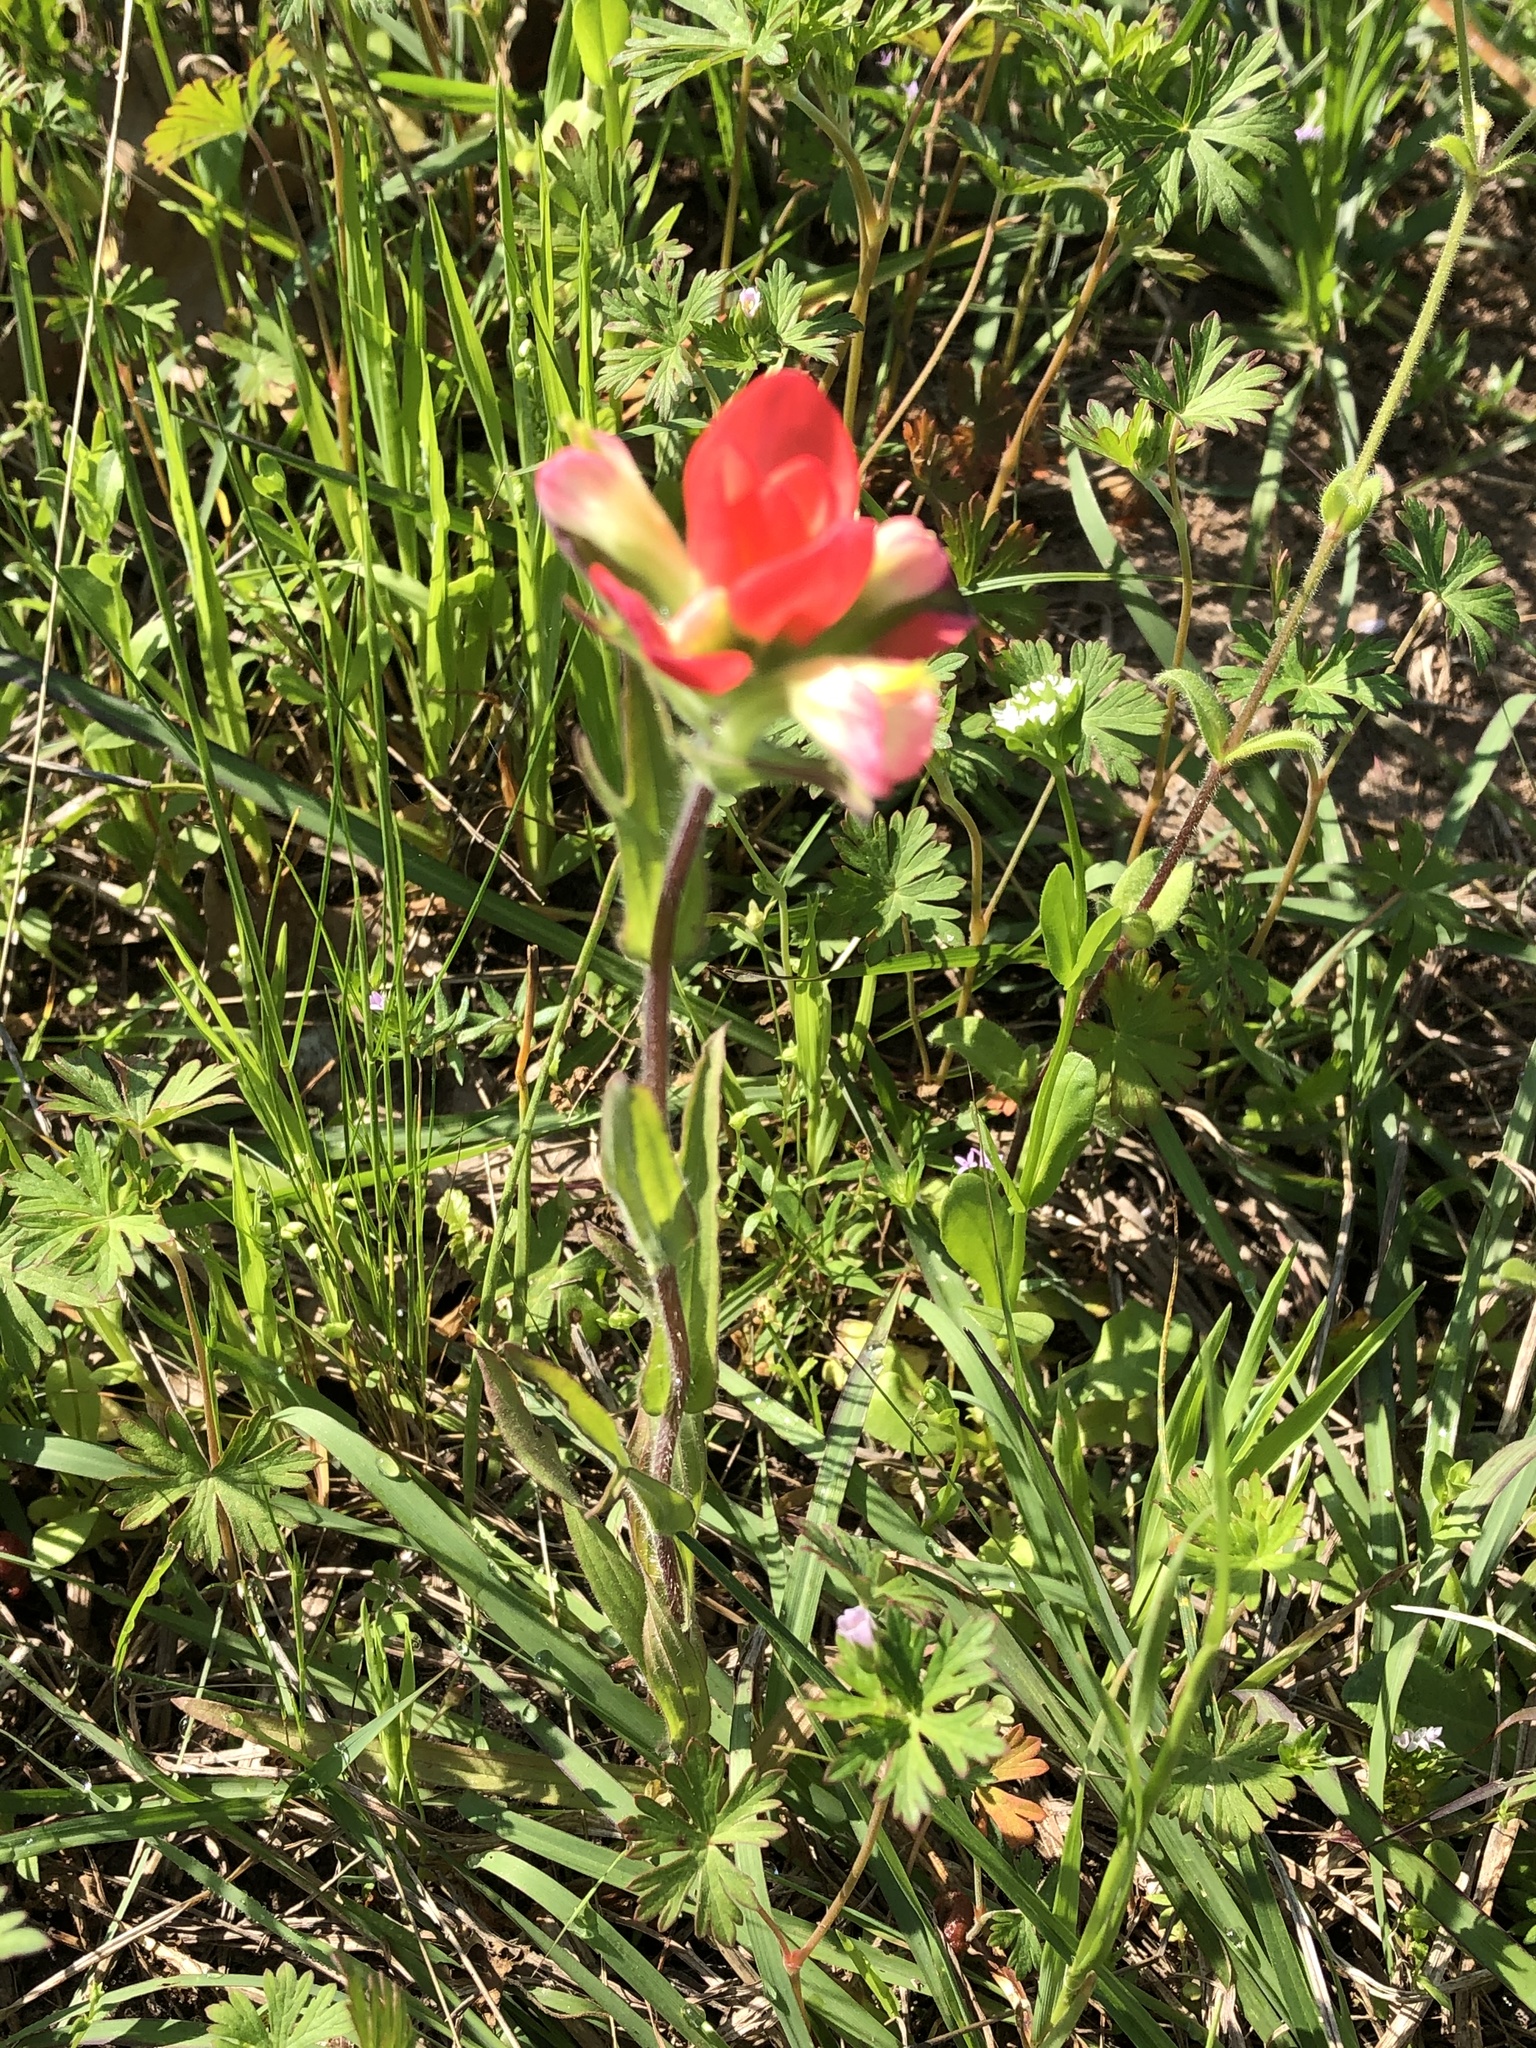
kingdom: Plantae
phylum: Tracheophyta
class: Magnoliopsida
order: Lamiales
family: Orobanchaceae
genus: Castilleja
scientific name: Castilleja indivisa
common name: Texas paintbrush
